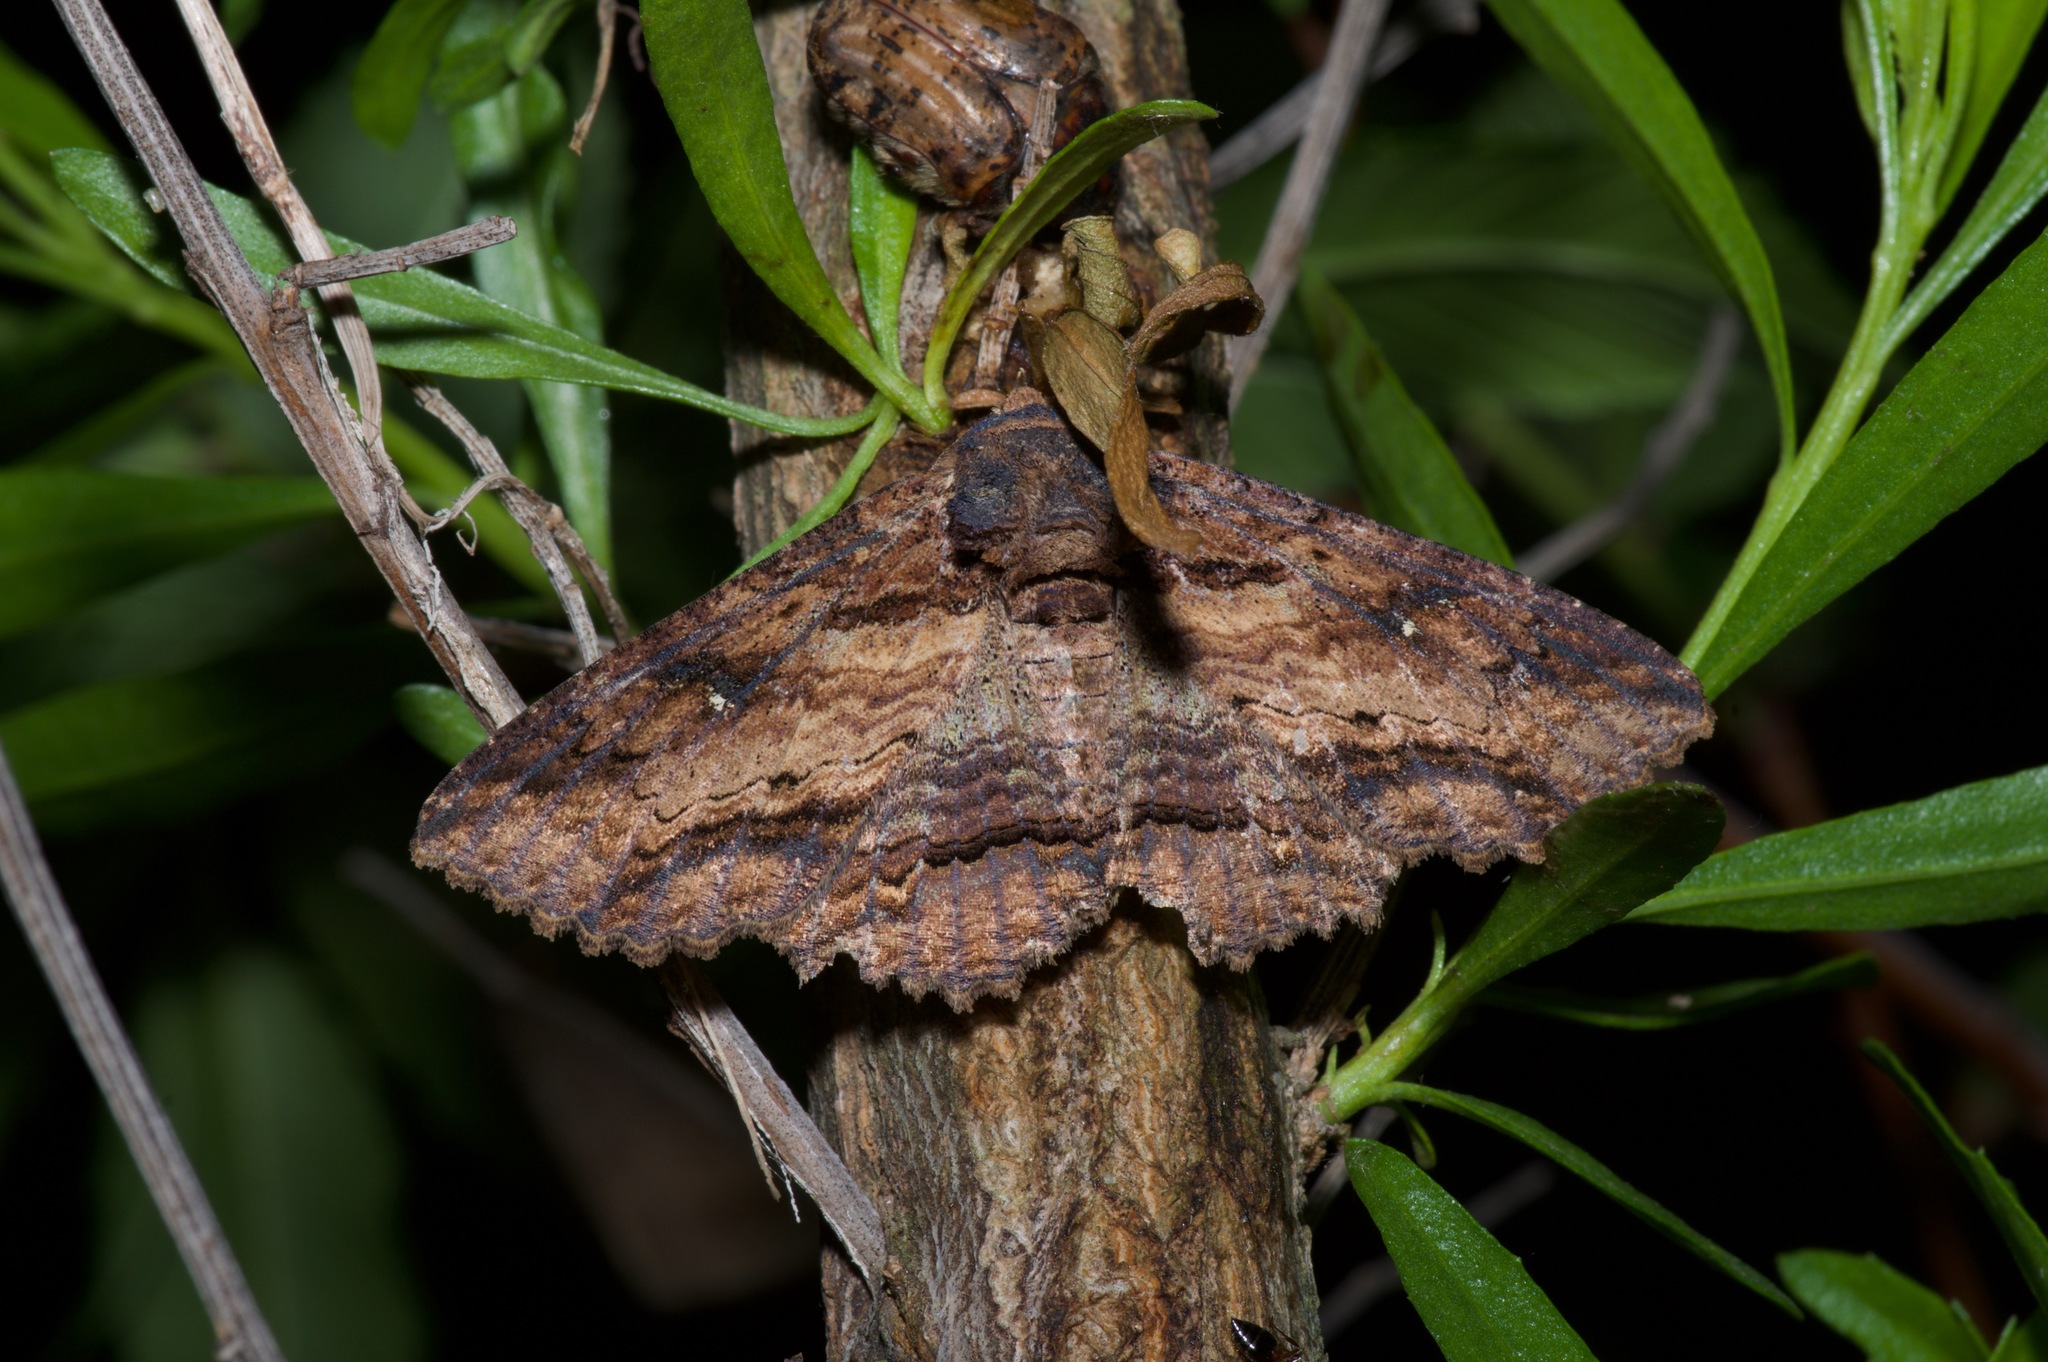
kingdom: Animalia
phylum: Arthropoda
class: Insecta
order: Lepidoptera
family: Erebidae
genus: Zale
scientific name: Zale lunata
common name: Lunate zale moth
